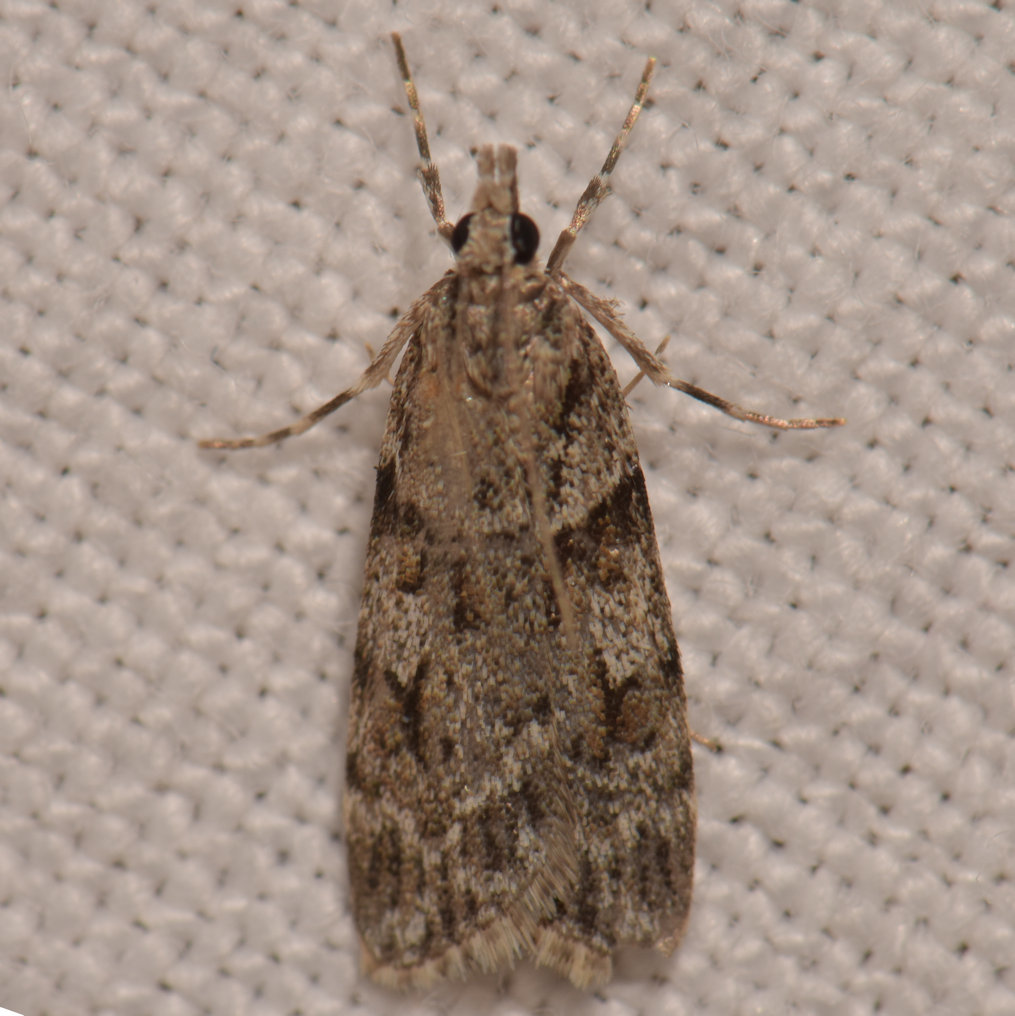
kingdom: Animalia
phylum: Arthropoda
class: Insecta
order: Lepidoptera
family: Crambidae
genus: Scoparia
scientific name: Scoparia biplagialis
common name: Double-striped scoparia moth
